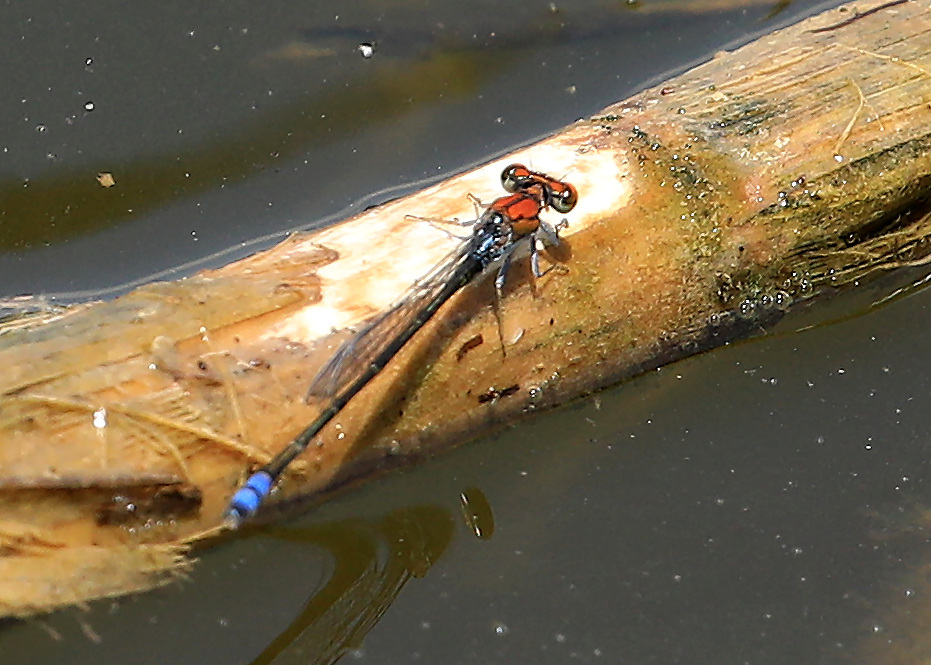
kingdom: Animalia
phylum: Arthropoda
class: Insecta
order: Odonata
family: Coenagrionidae
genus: Pseudagrion
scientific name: Pseudagrion massaicum
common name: Masai sprite
